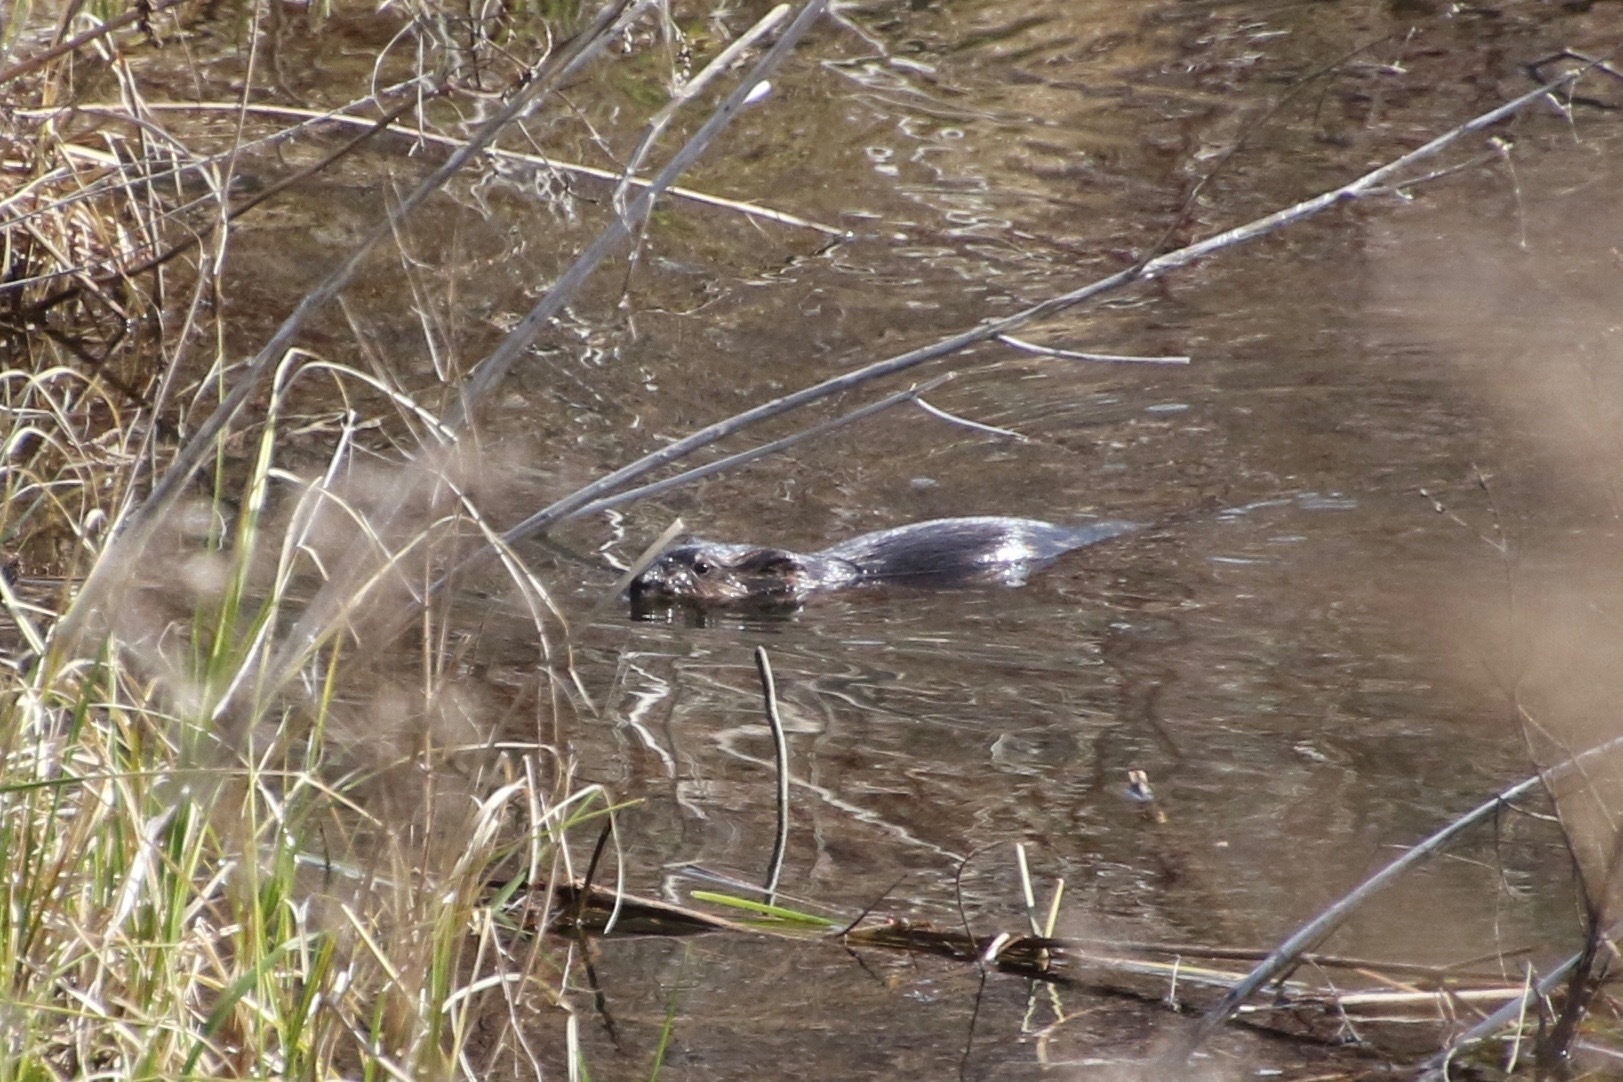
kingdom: Animalia
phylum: Chordata
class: Mammalia
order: Rodentia
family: Cricetidae
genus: Ondatra
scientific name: Ondatra zibethicus
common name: Muskrat
